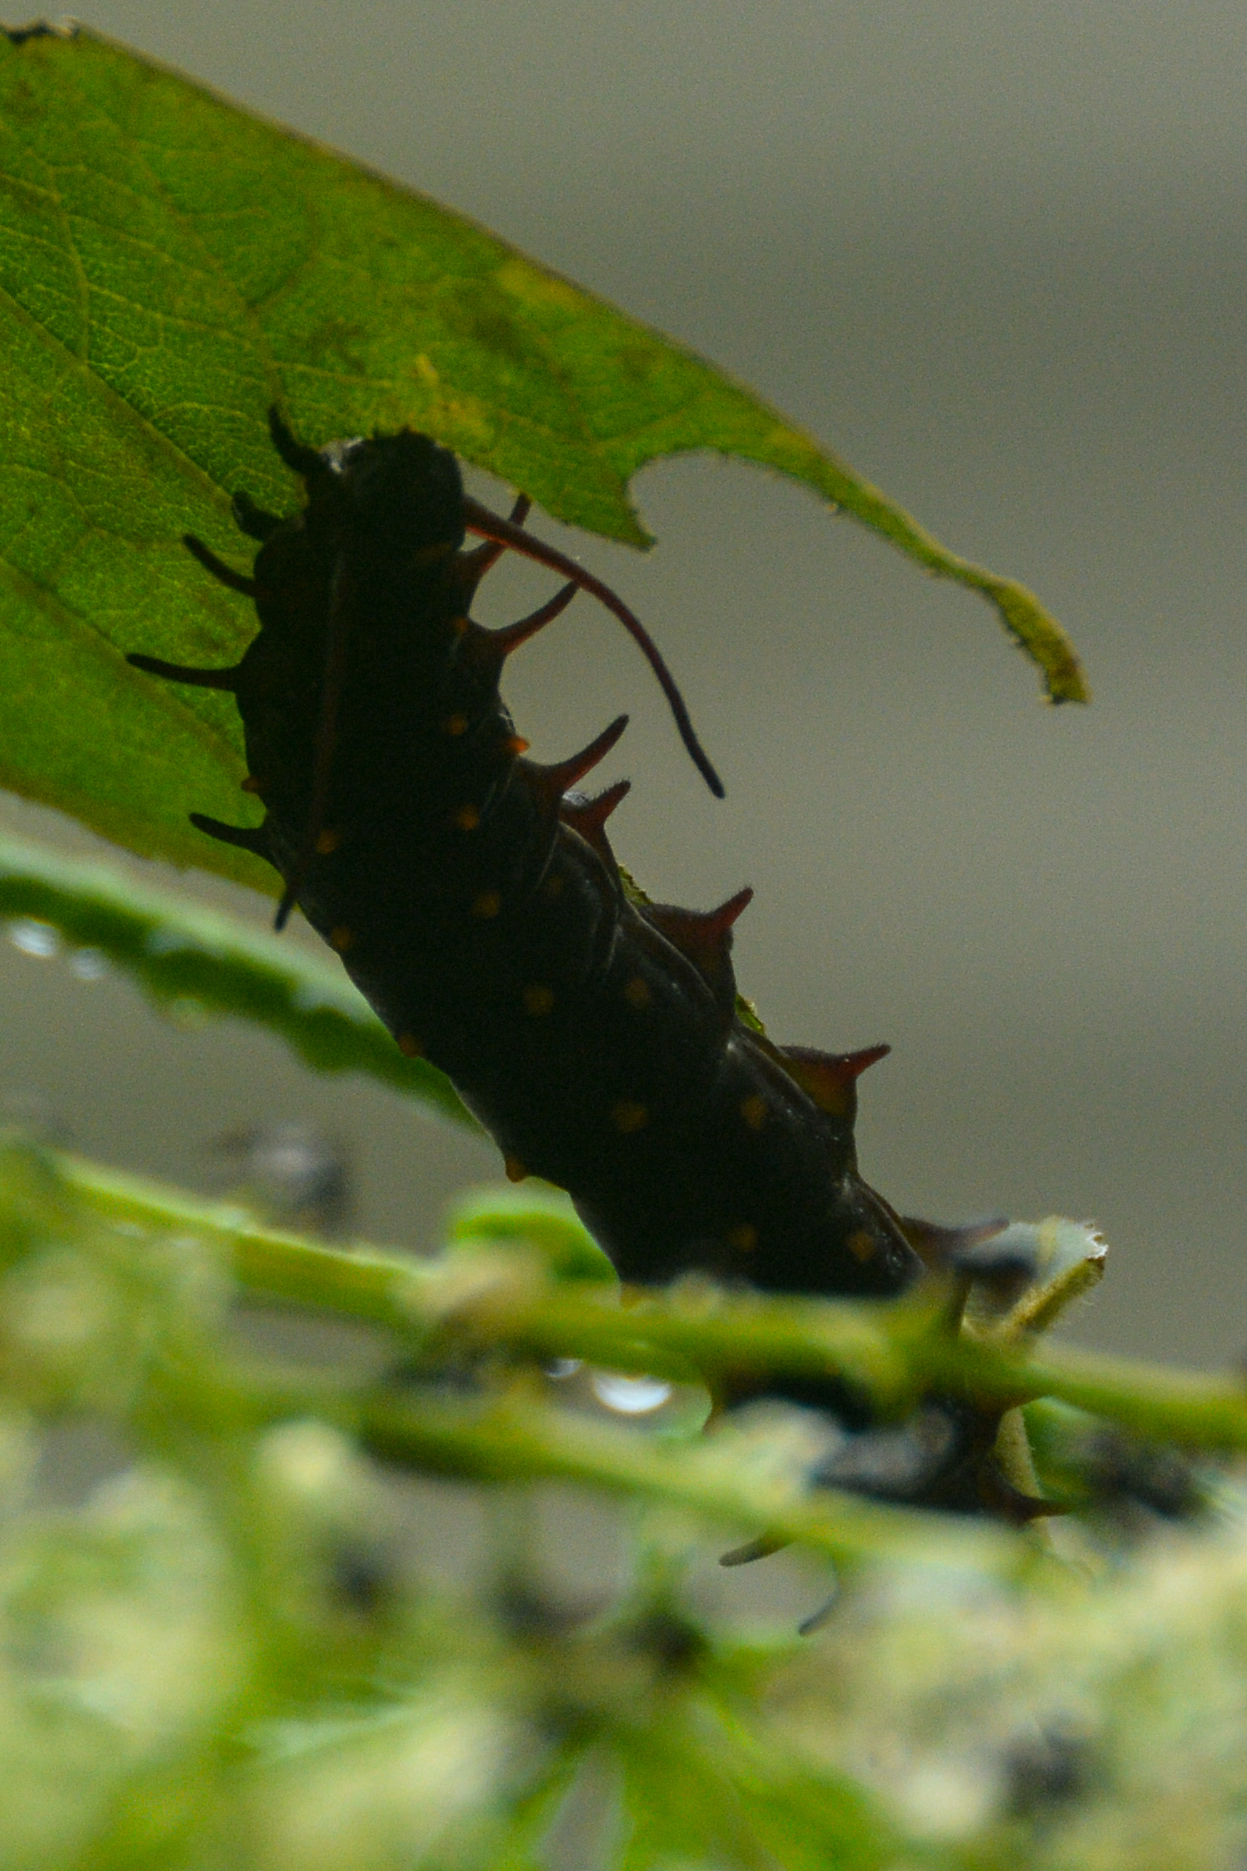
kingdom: Animalia
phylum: Arthropoda
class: Insecta
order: Lepidoptera
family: Papilionidae
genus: Battus
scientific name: Battus philenor
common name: Pipevine swallowtail
